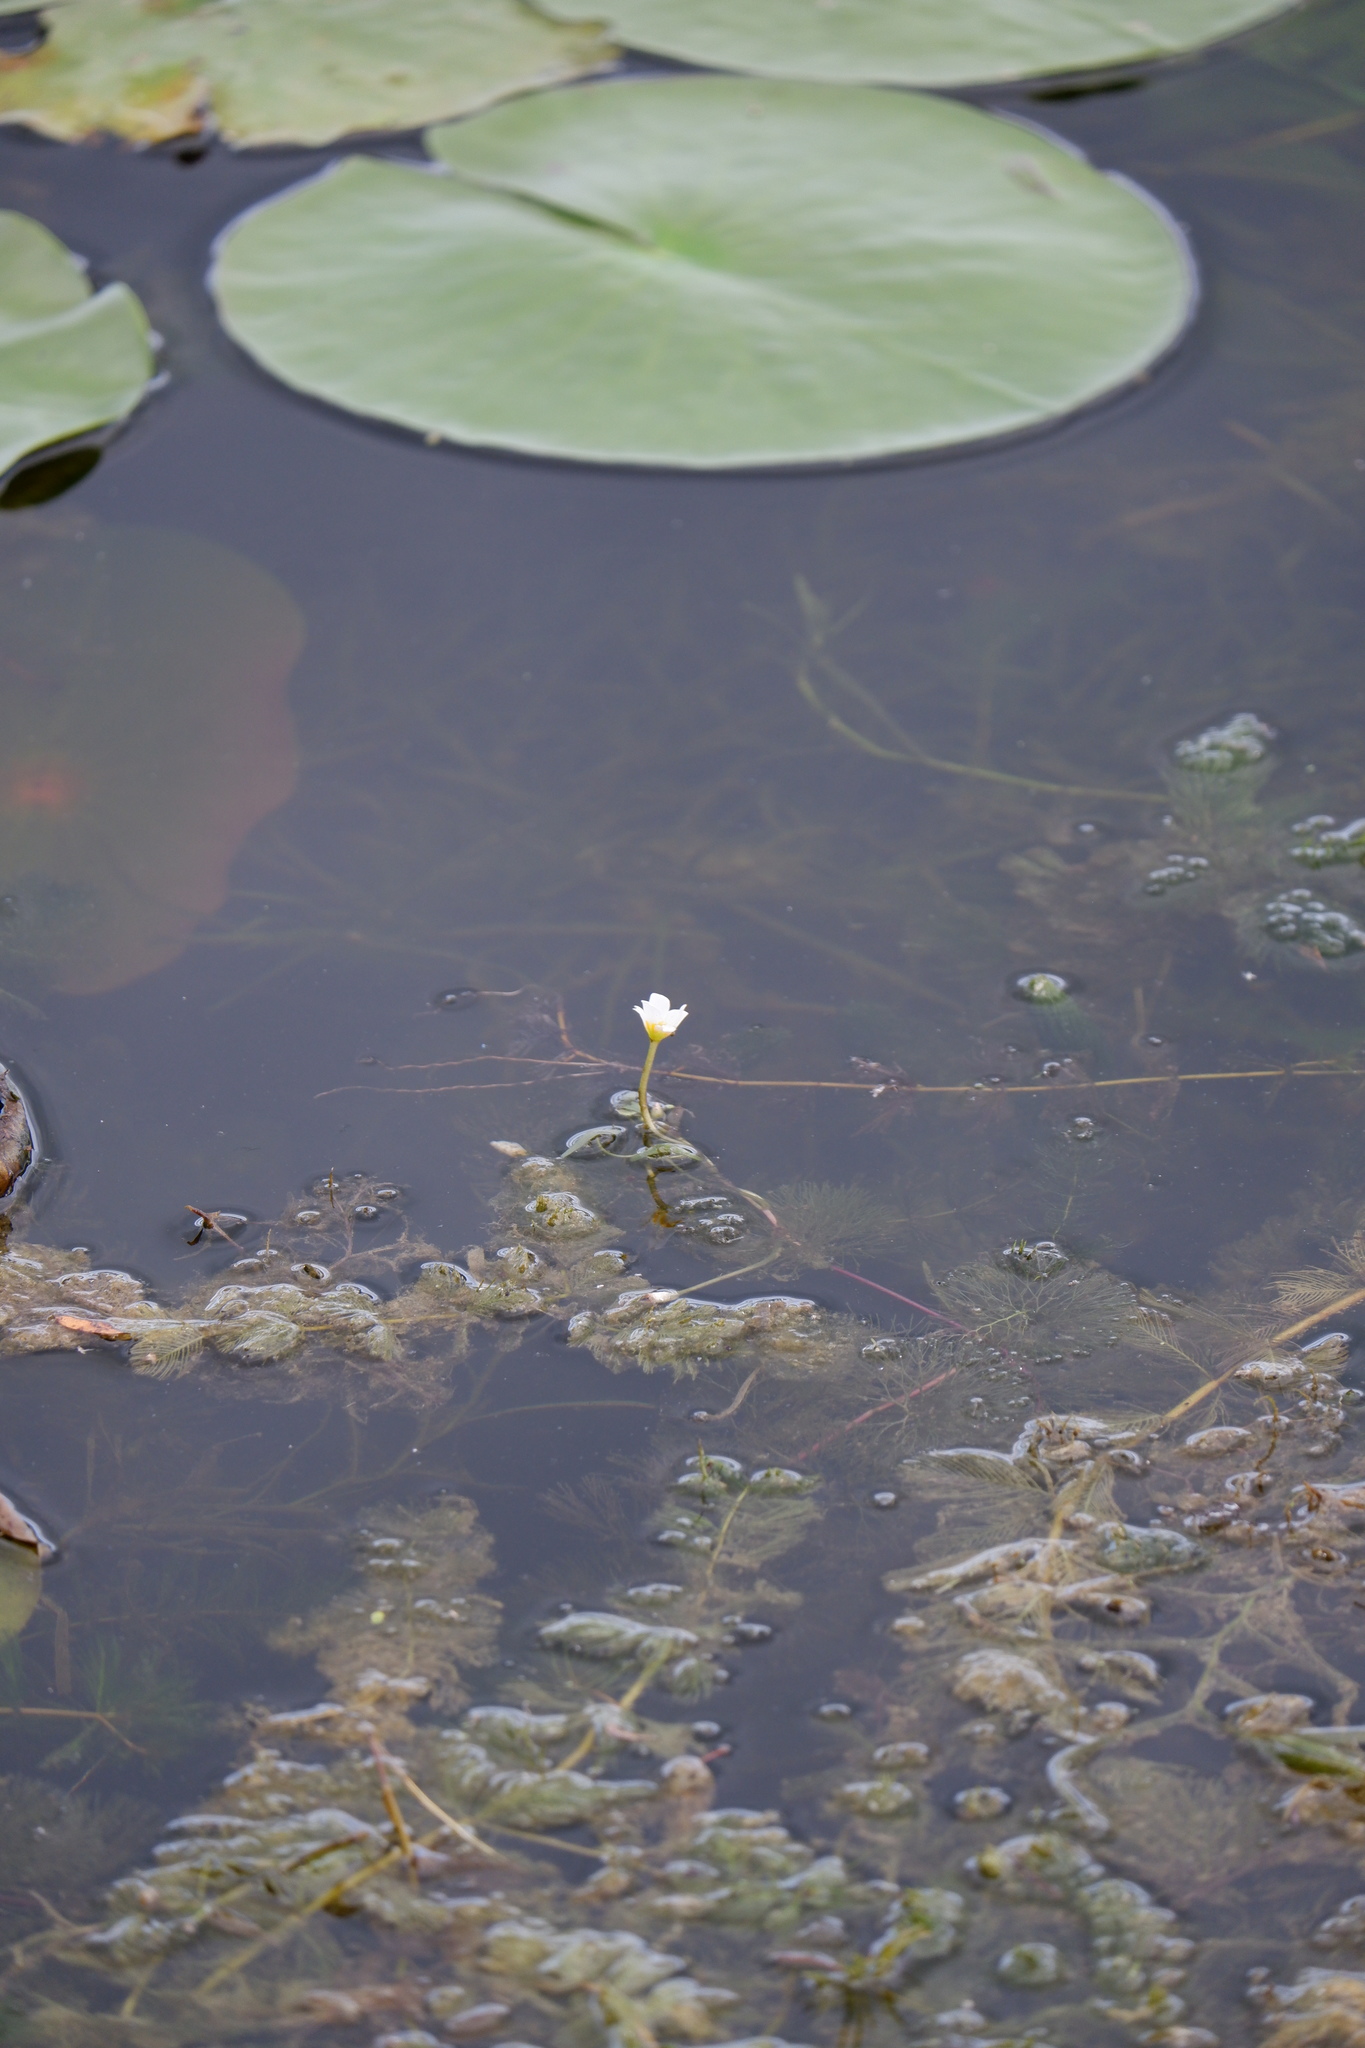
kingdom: Plantae
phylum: Tracheophyta
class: Magnoliopsida
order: Nymphaeales
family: Cabombaceae
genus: Cabomba
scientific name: Cabomba caroliniana
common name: Fanwort
